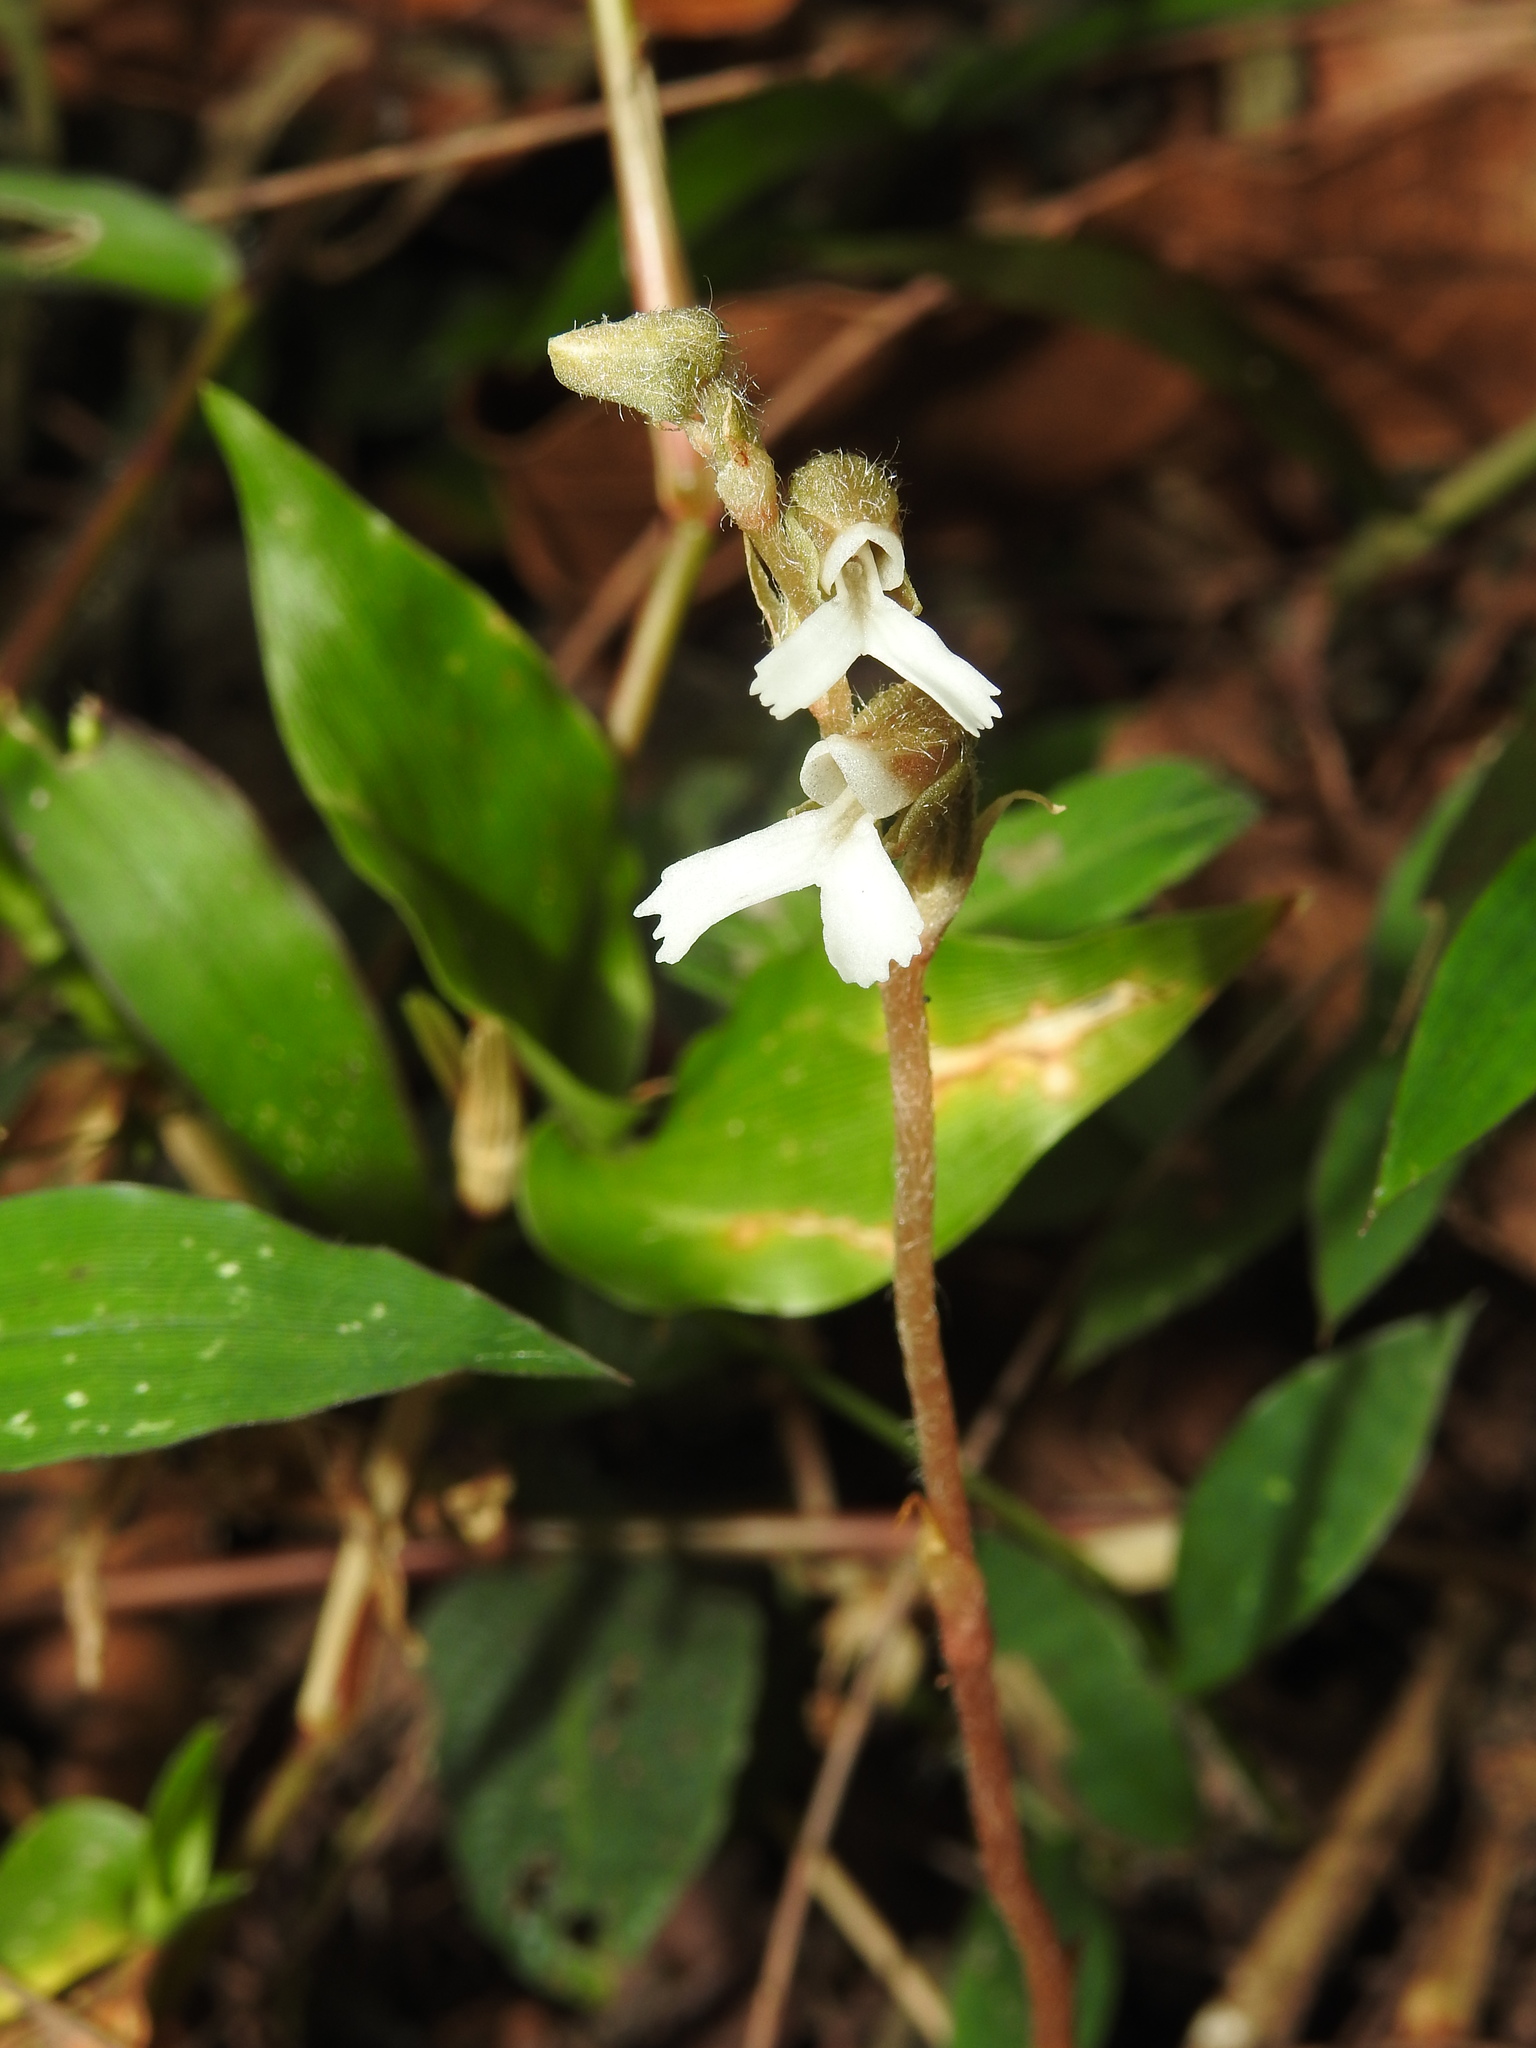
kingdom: Plantae
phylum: Tracheophyta
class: Liliopsida
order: Asparagales
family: Orchidaceae
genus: Zeuxine
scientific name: Zeuxine longilabris
